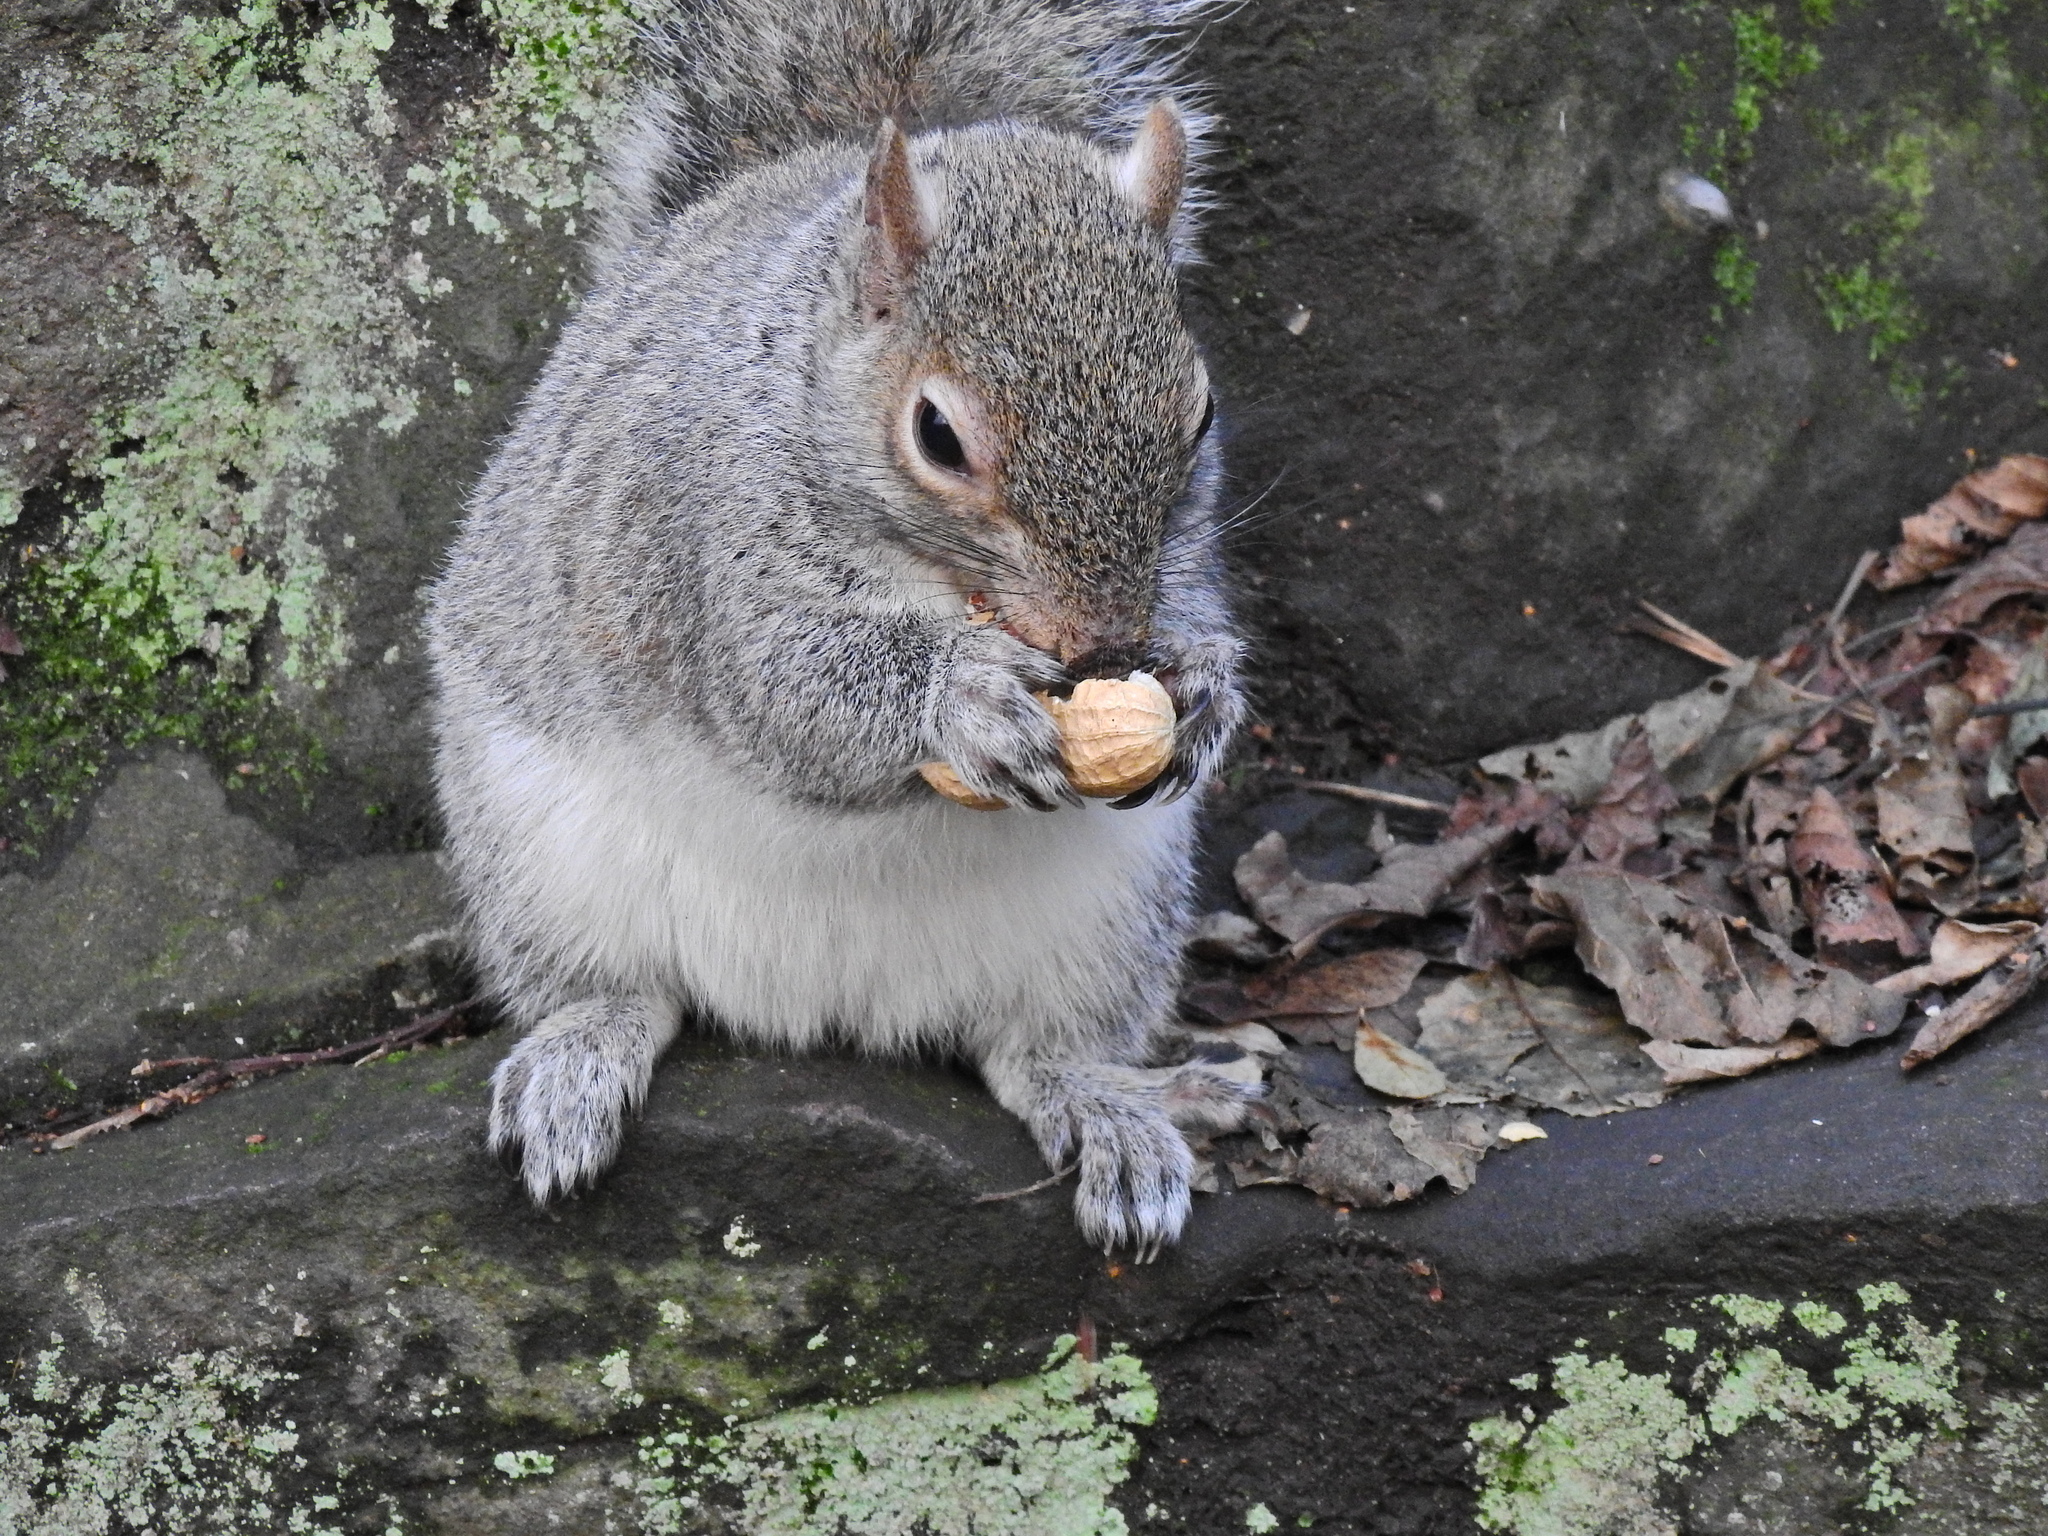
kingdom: Animalia
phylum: Chordata
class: Mammalia
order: Rodentia
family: Sciuridae
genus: Sciurus
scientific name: Sciurus carolinensis
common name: Eastern gray squirrel
